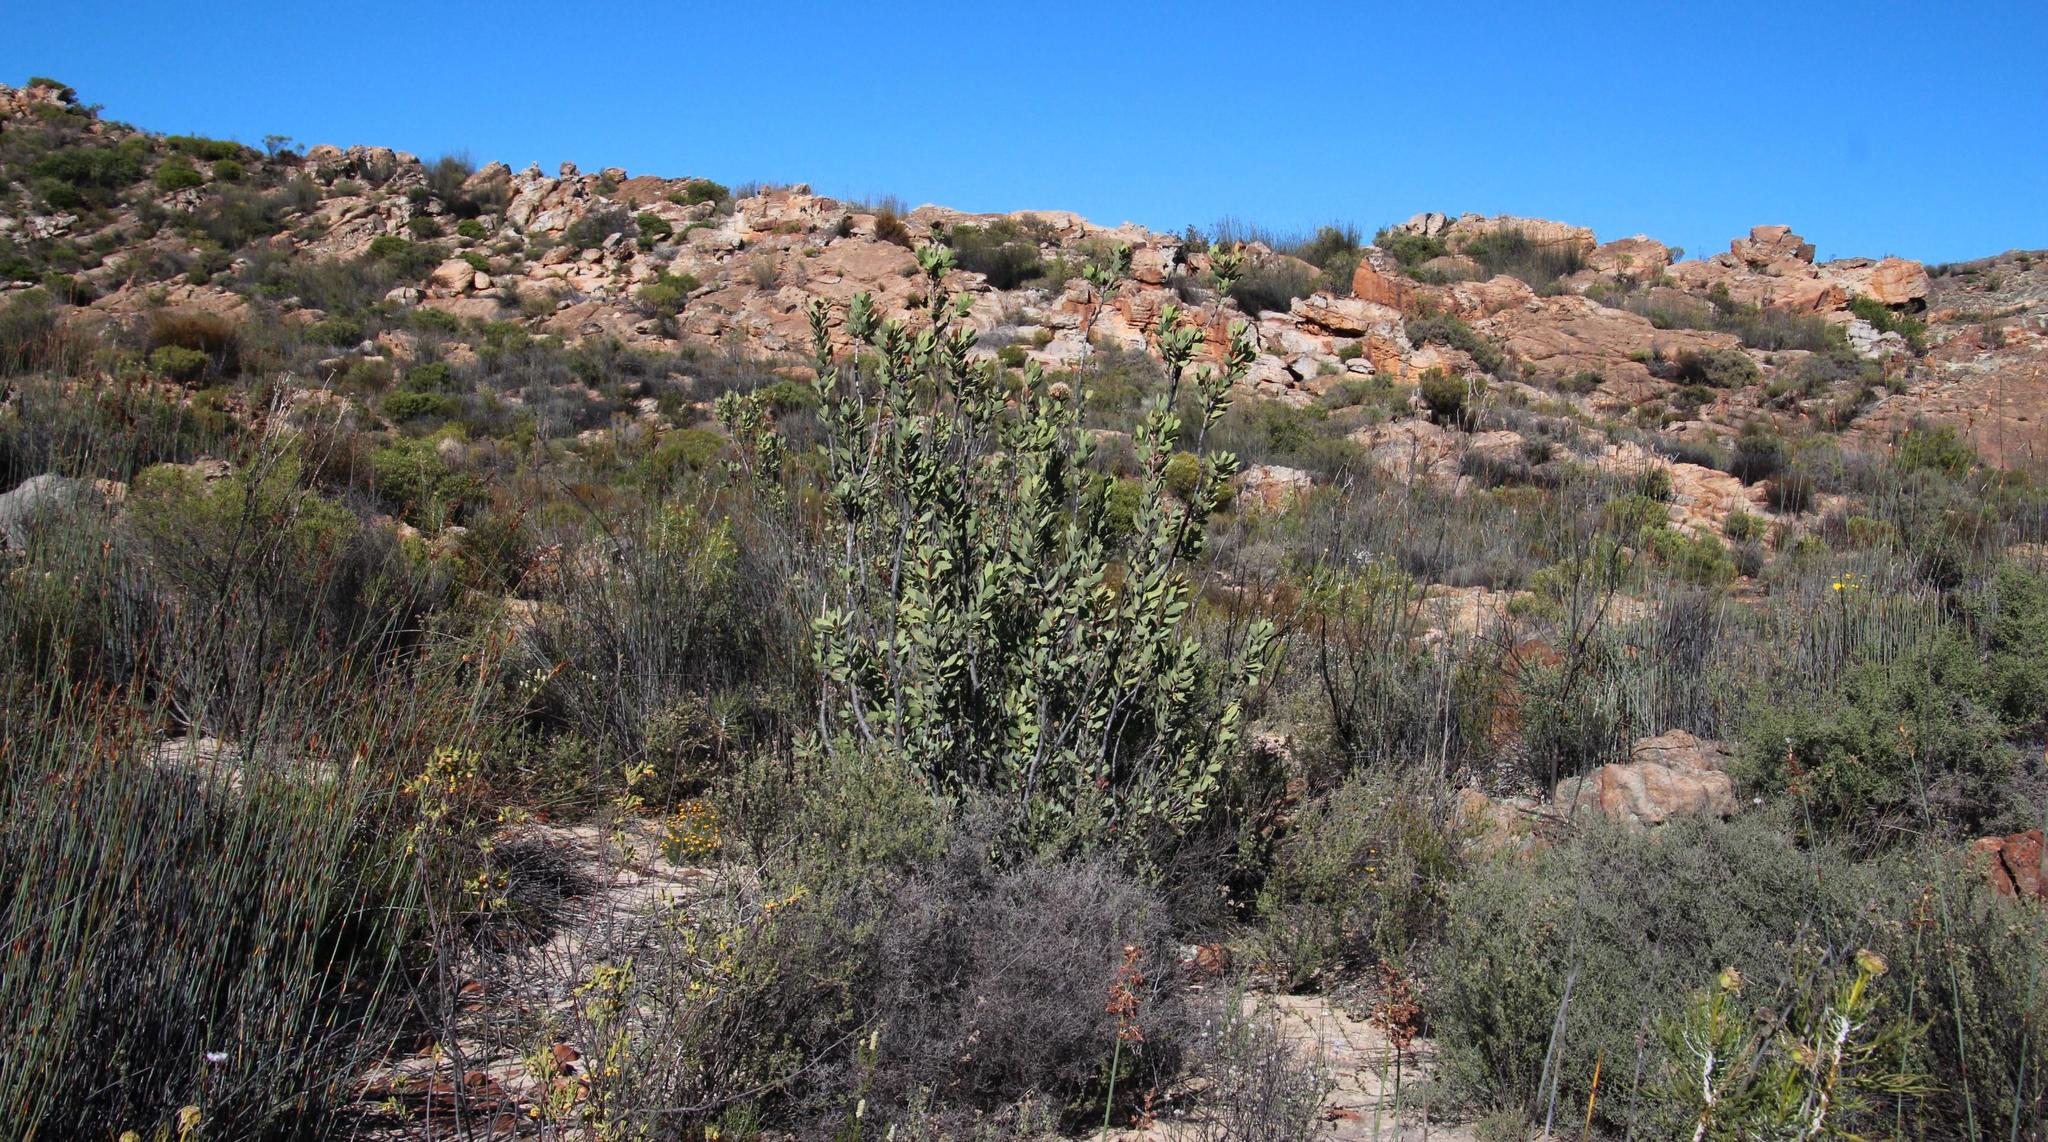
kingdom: Plantae
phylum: Tracheophyta
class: Magnoliopsida
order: Proteales
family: Proteaceae
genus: Protea
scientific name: Protea glabra
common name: Chestnut sugarbush
